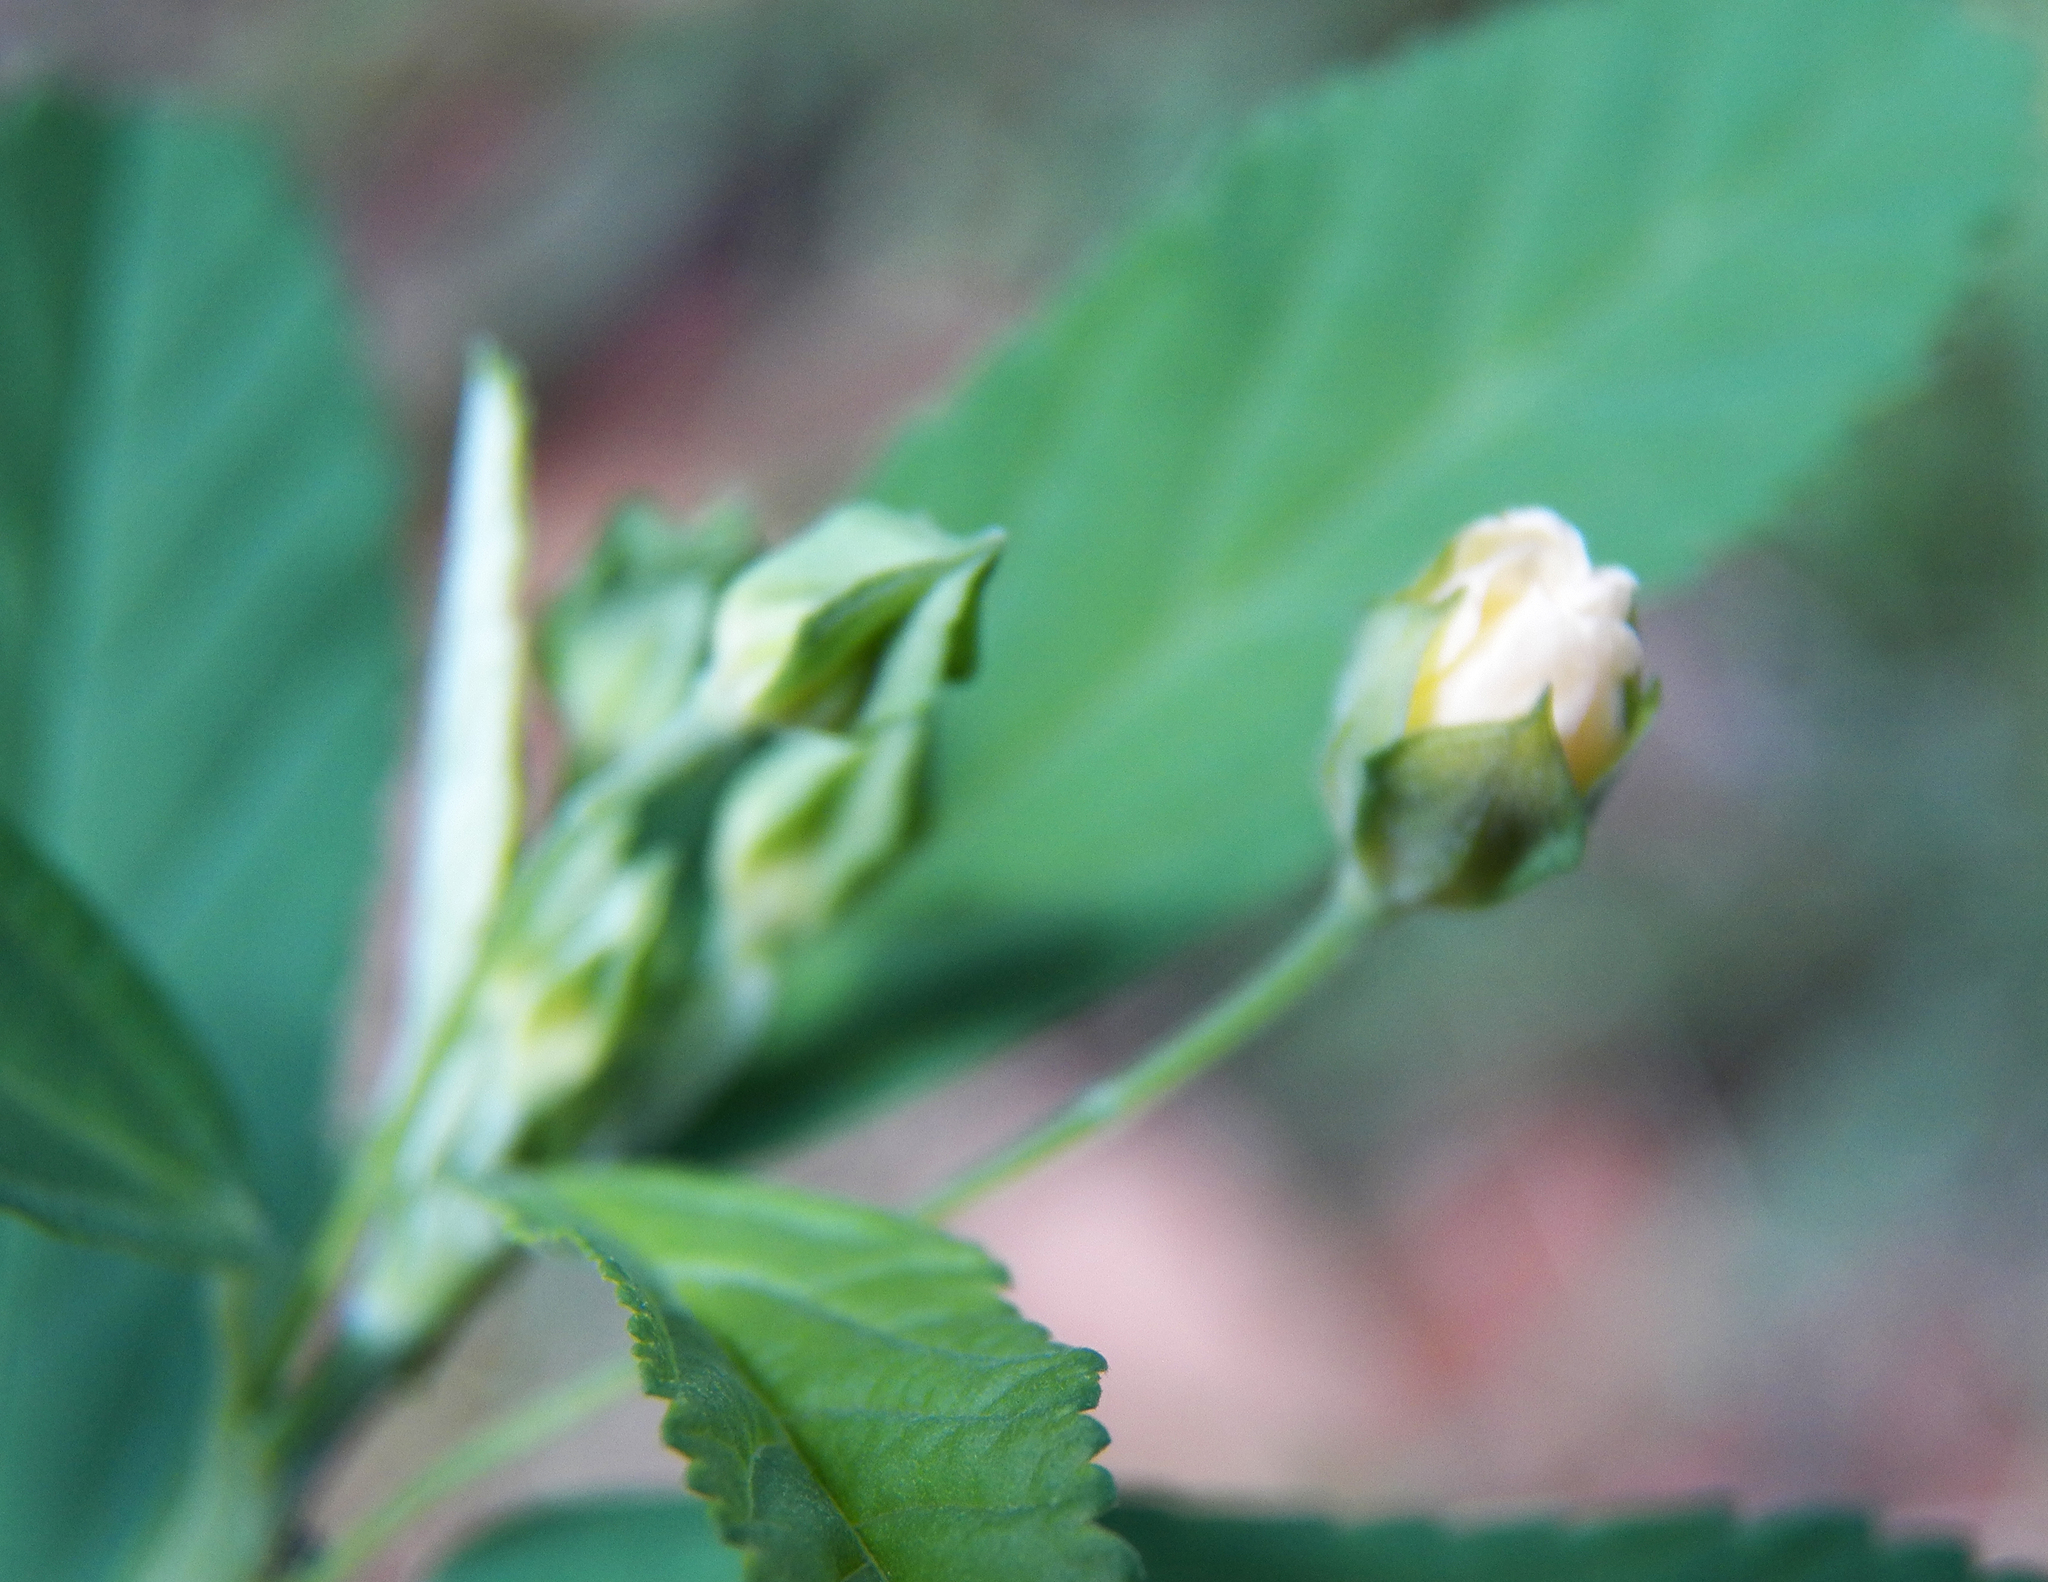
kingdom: Plantae
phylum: Tracheophyta
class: Magnoliopsida
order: Malvales
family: Malvaceae
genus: Sida
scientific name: Sida rhombifolia
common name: Queensland-hemp
